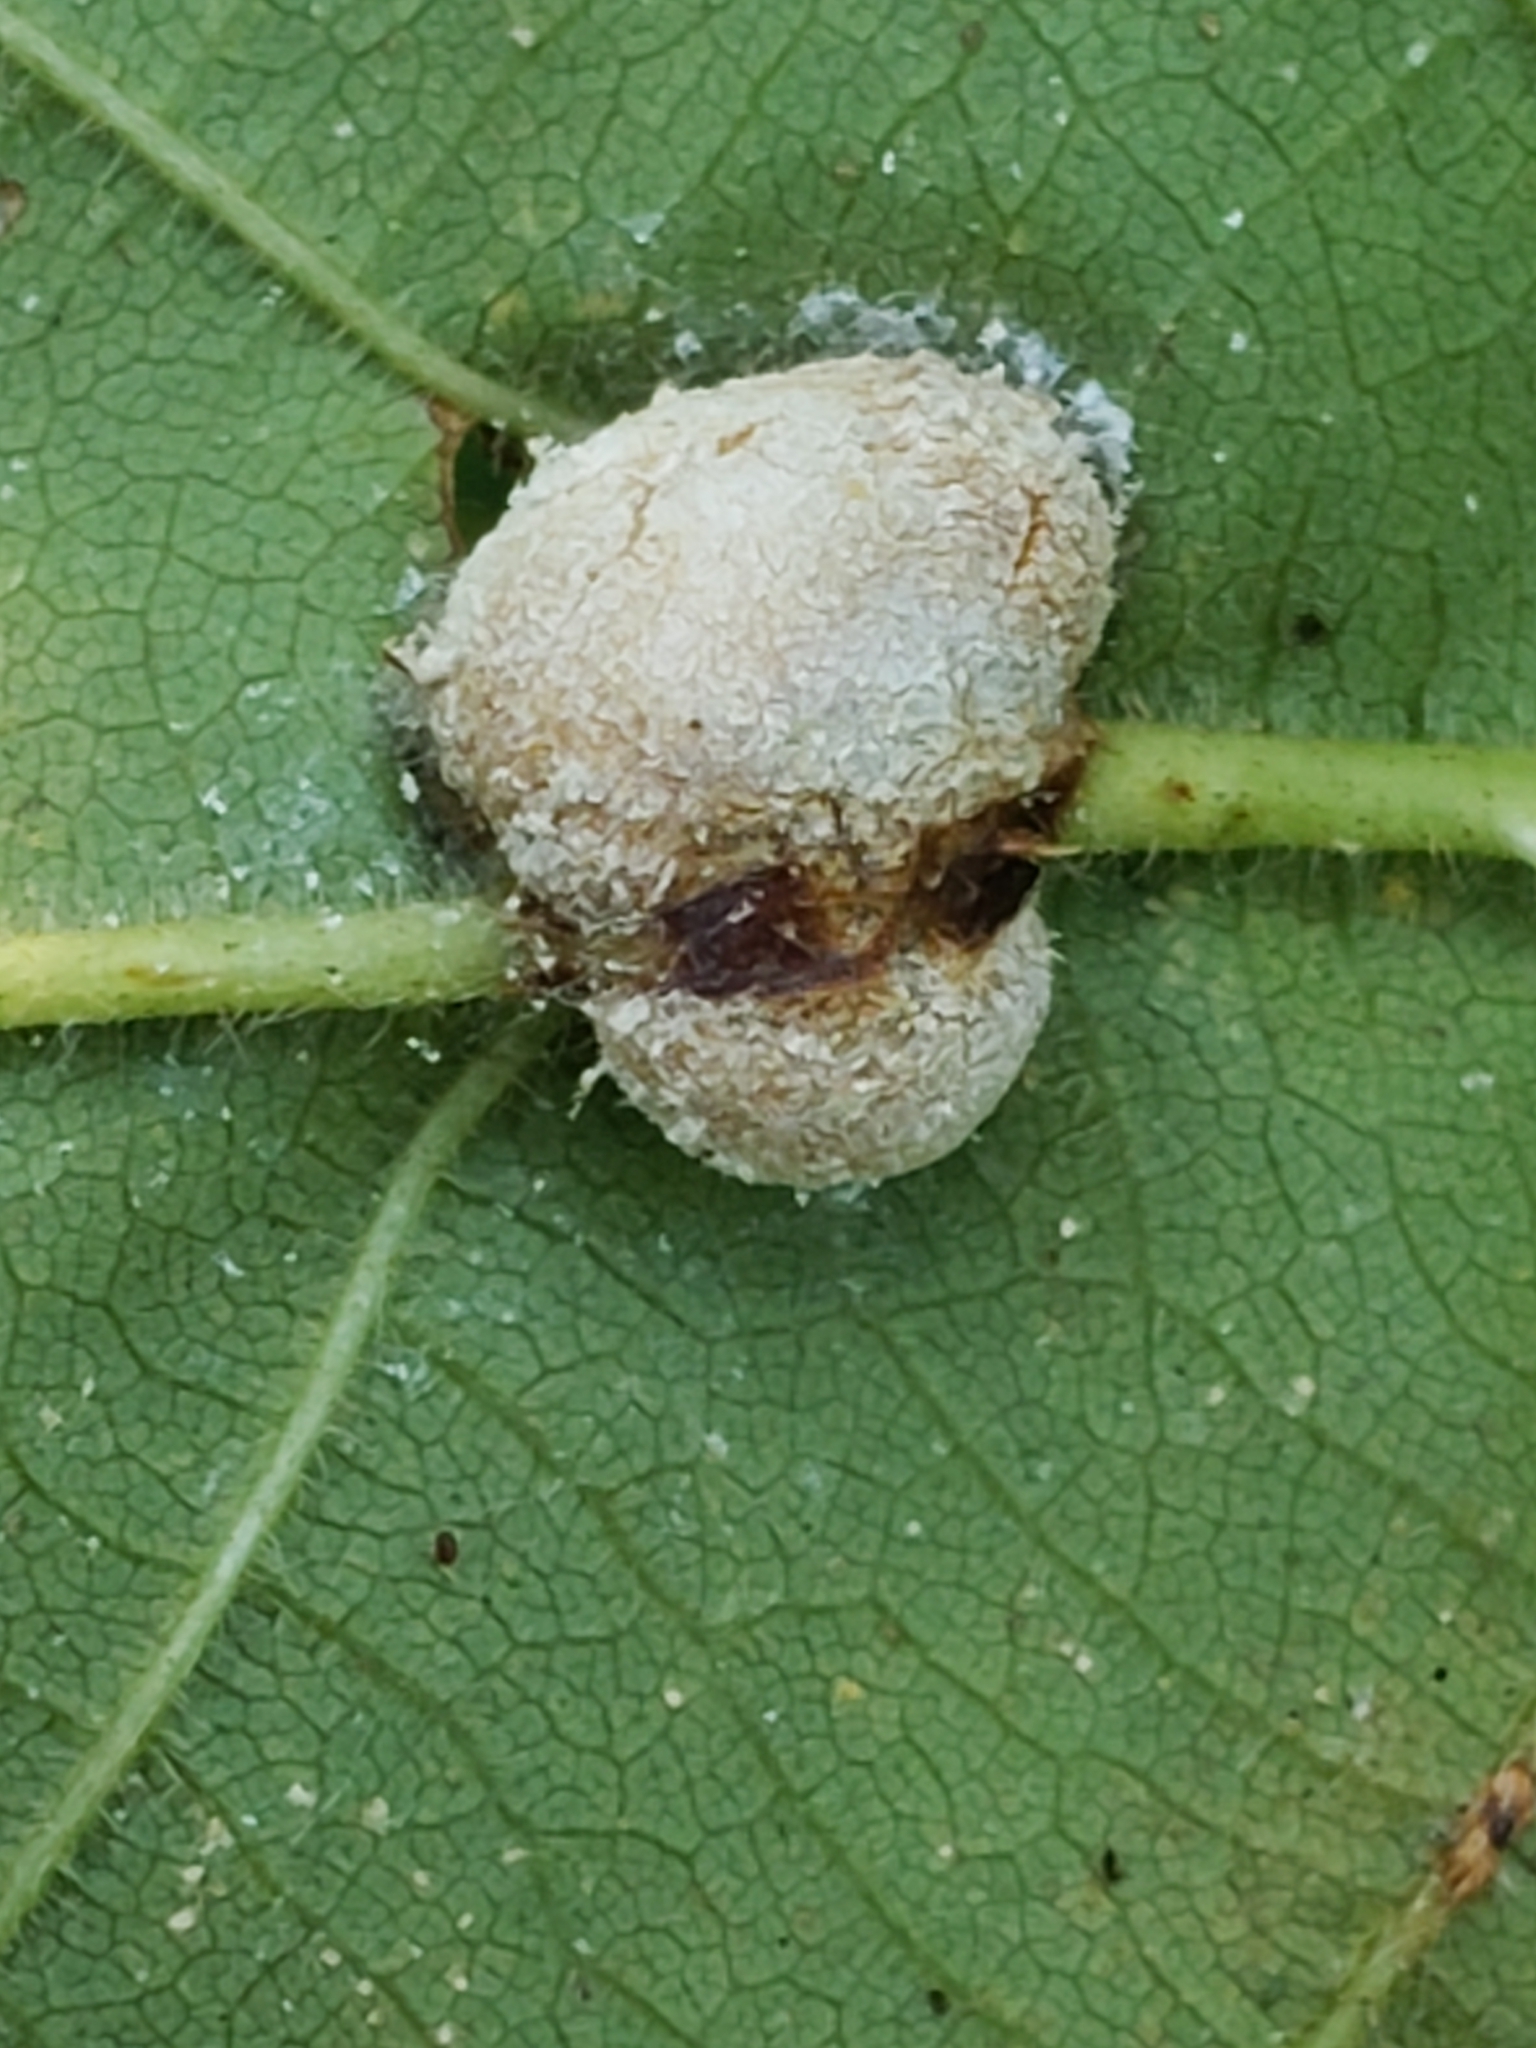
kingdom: Animalia
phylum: Arthropoda
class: Insecta
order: Diptera
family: Cecidomyiidae
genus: Neolasioptera
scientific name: Neolasioptera farinosa
